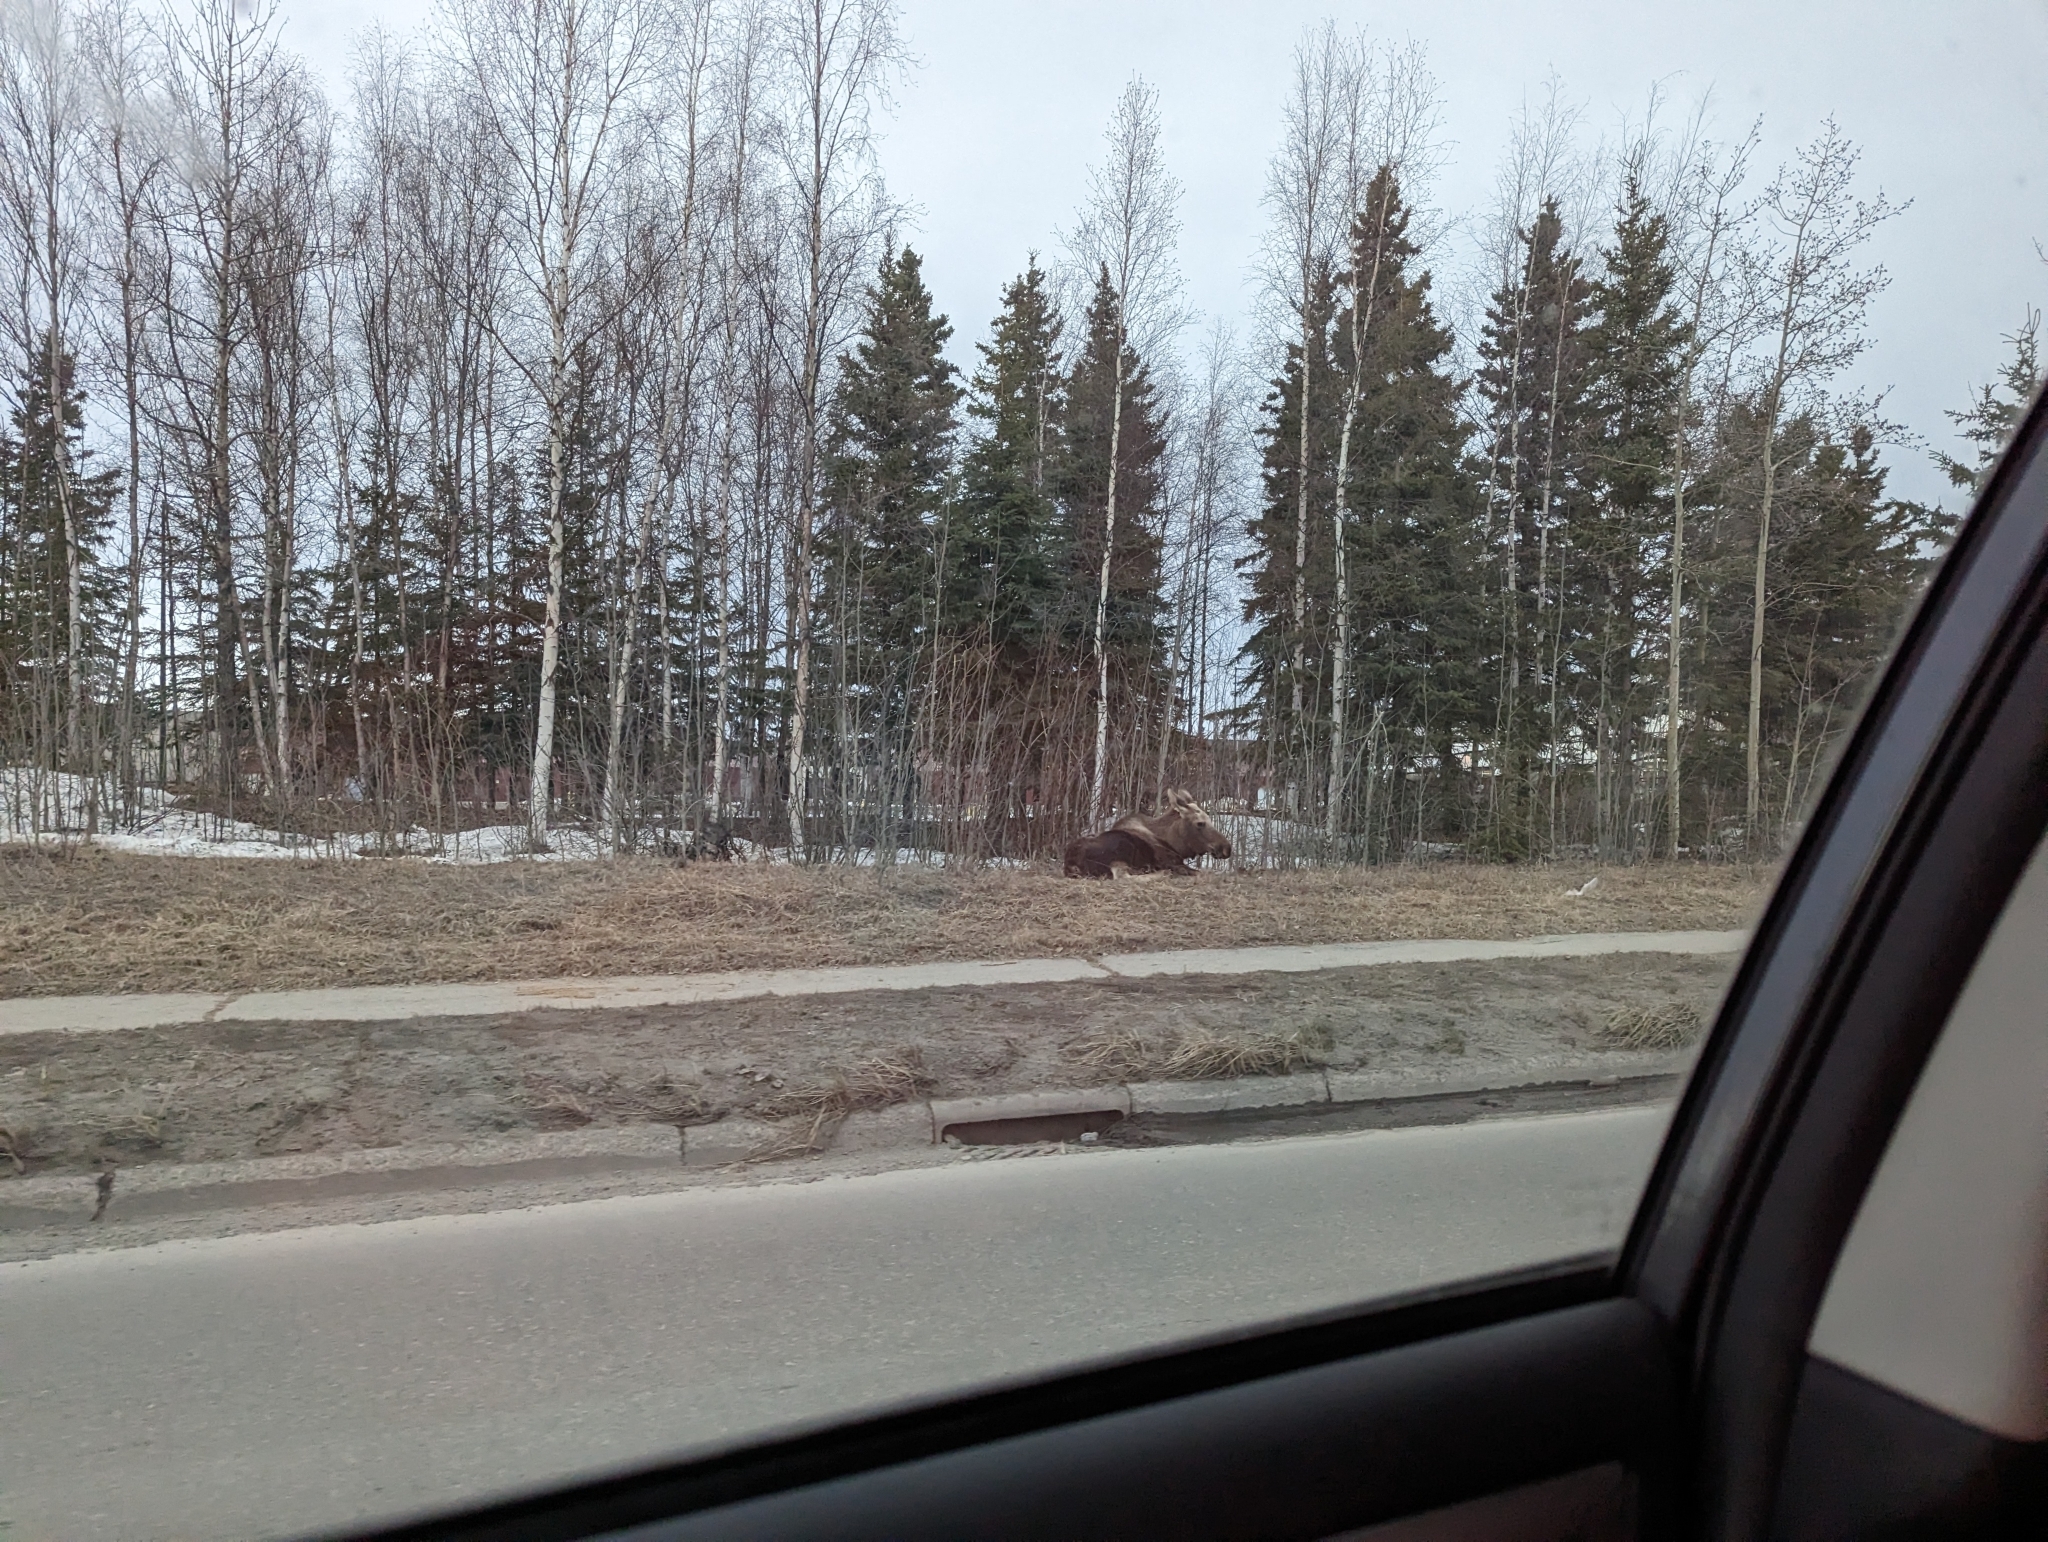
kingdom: Animalia
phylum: Chordata
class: Mammalia
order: Artiodactyla
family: Cervidae
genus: Alces
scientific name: Alces alces
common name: Moose
